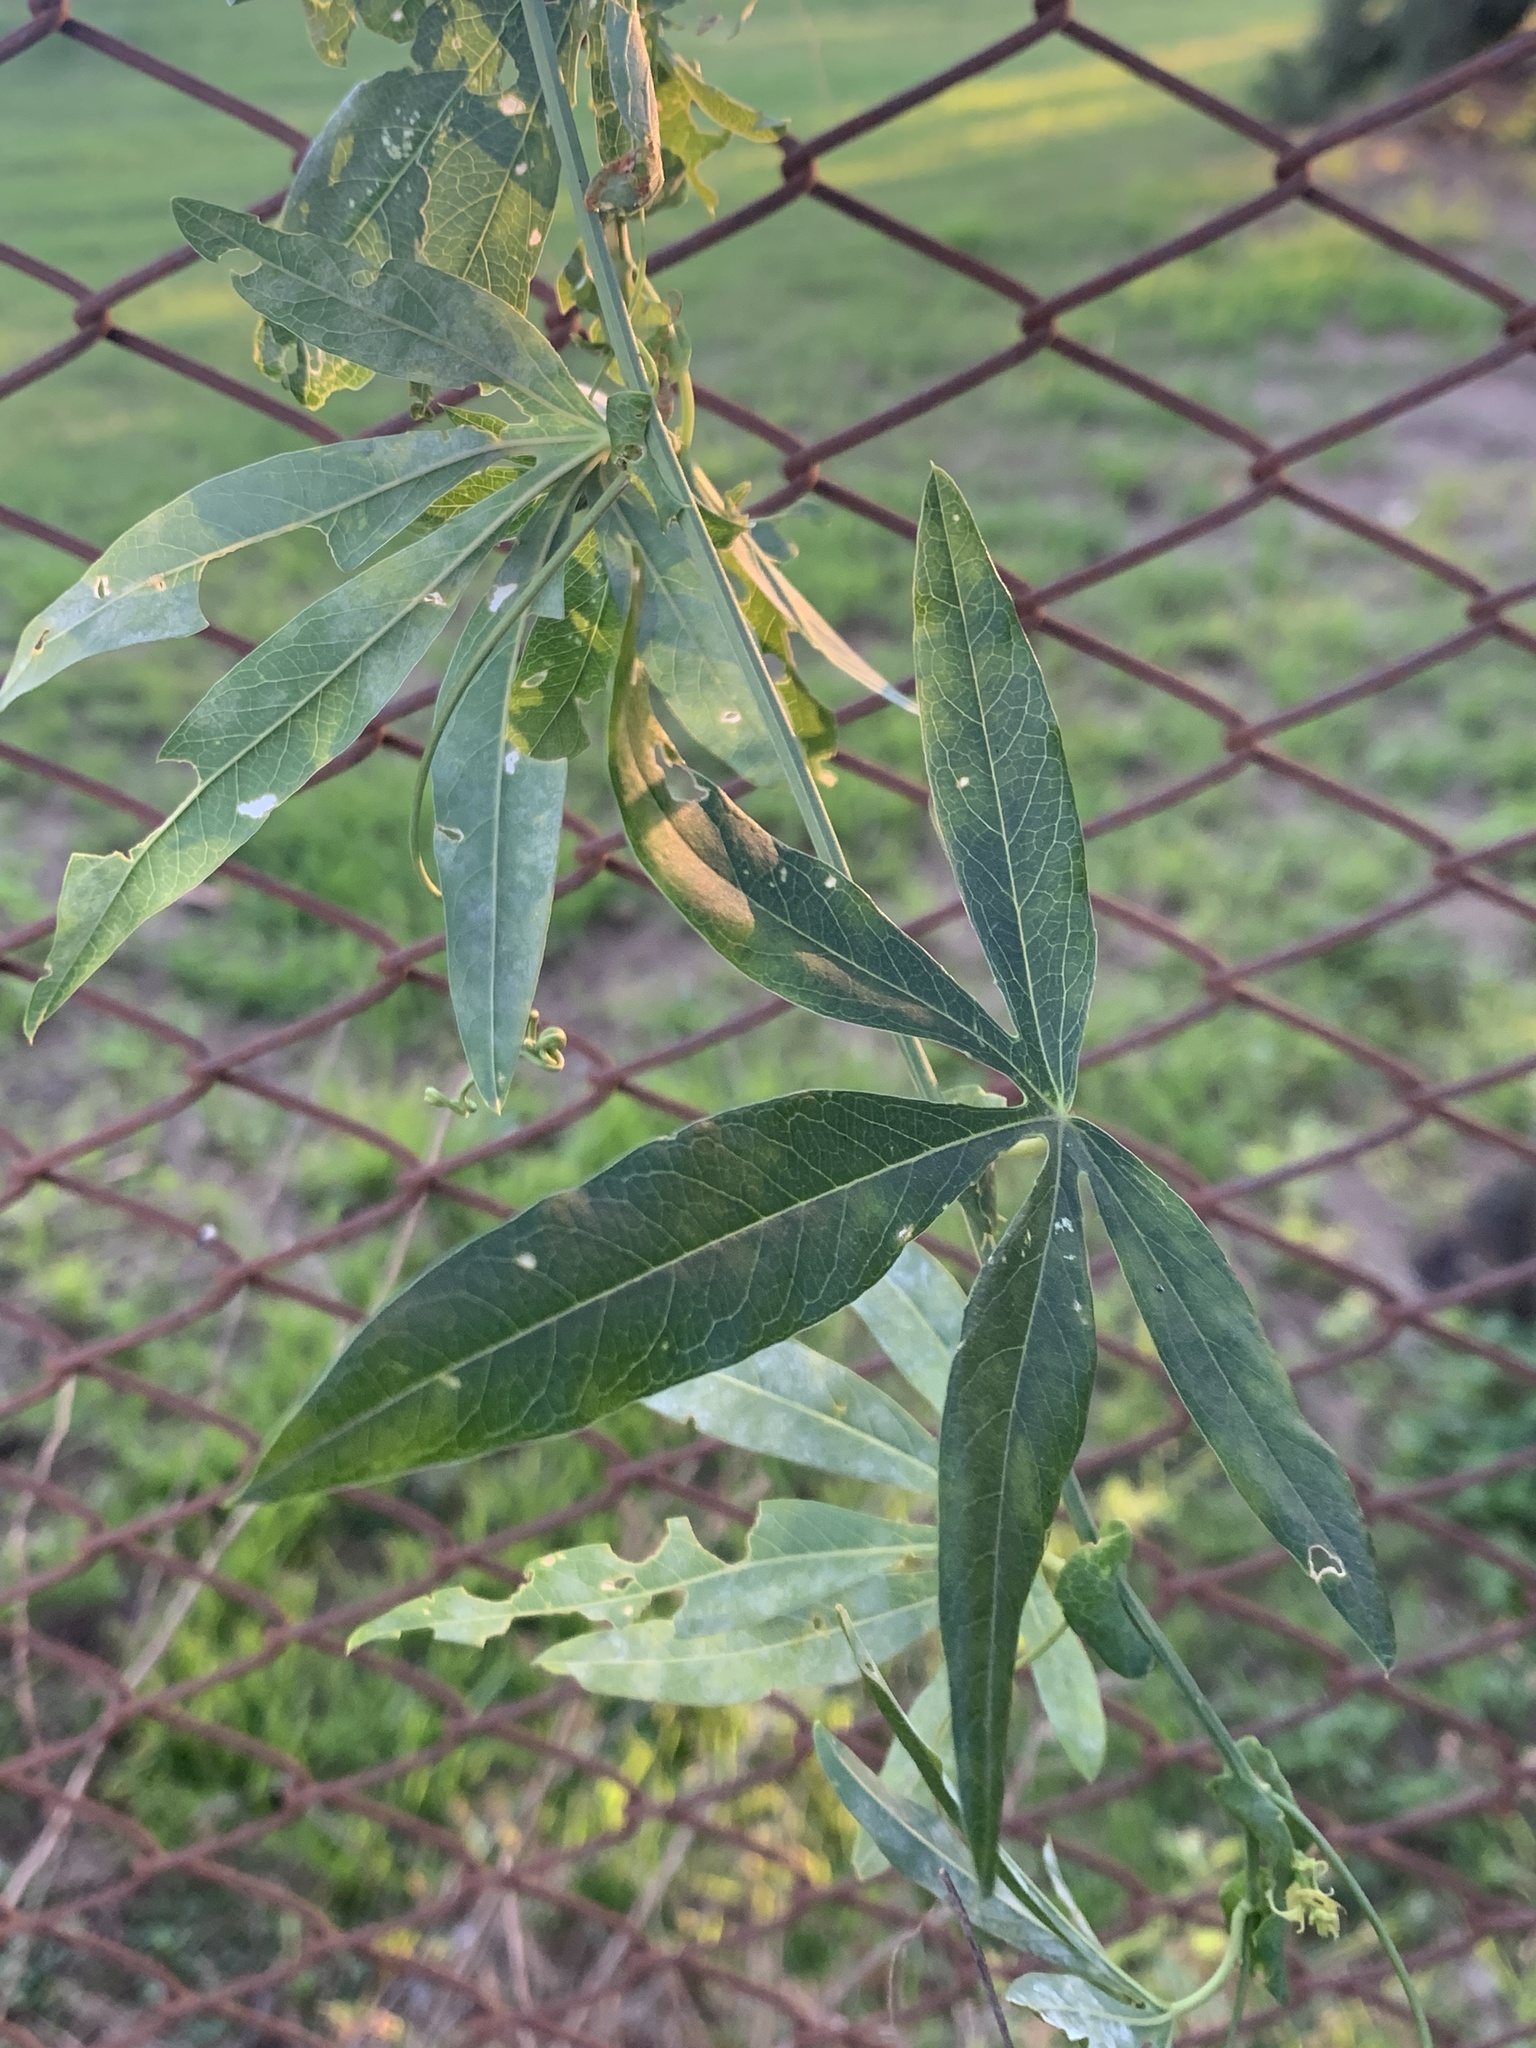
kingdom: Plantae
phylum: Tracheophyta
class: Magnoliopsida
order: Malpighiales
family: Passifloraceae
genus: Passiflora
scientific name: Passiflora caerulea
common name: Blue passionflower
